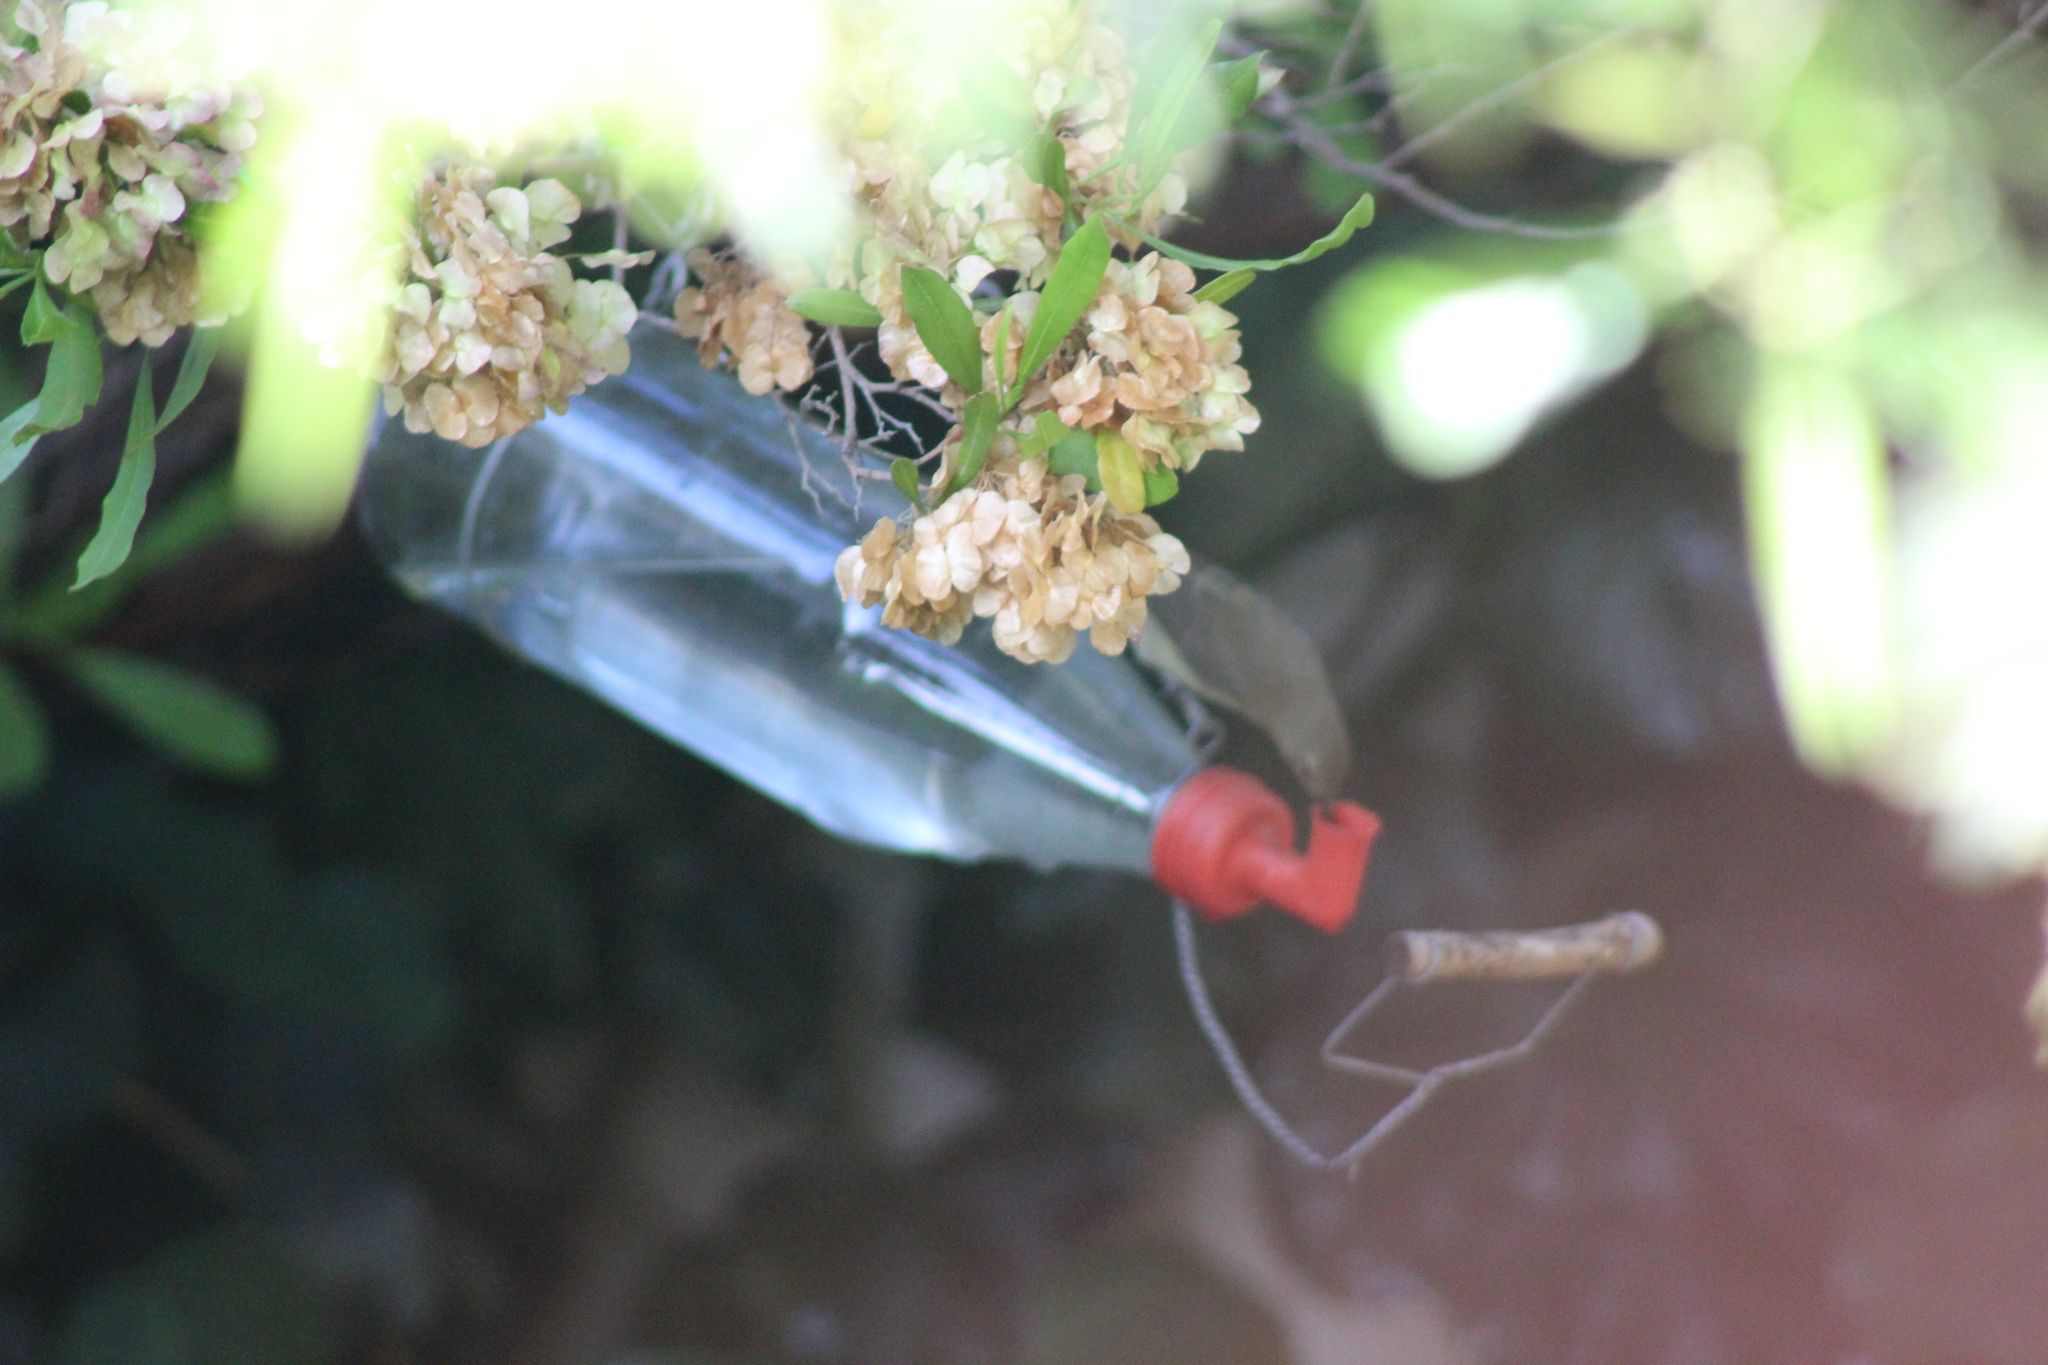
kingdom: Animalia
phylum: Chordata
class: Aves
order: Passeriformes
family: Nectariniidae
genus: Cinnyris
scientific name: Cinnyris chalybeus
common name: Southern double-collared sunbird
